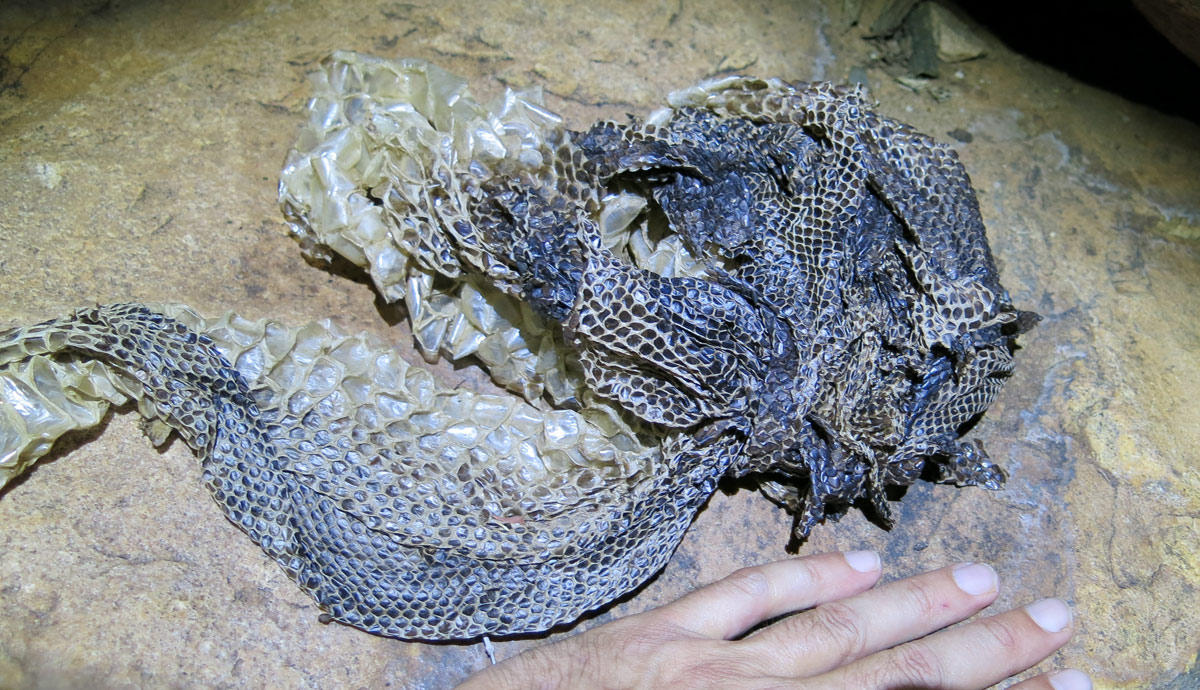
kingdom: Animalia
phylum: Chordata
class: Squamata
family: Pythonidae
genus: Python
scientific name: Python natalensis
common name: Southern african rock python
